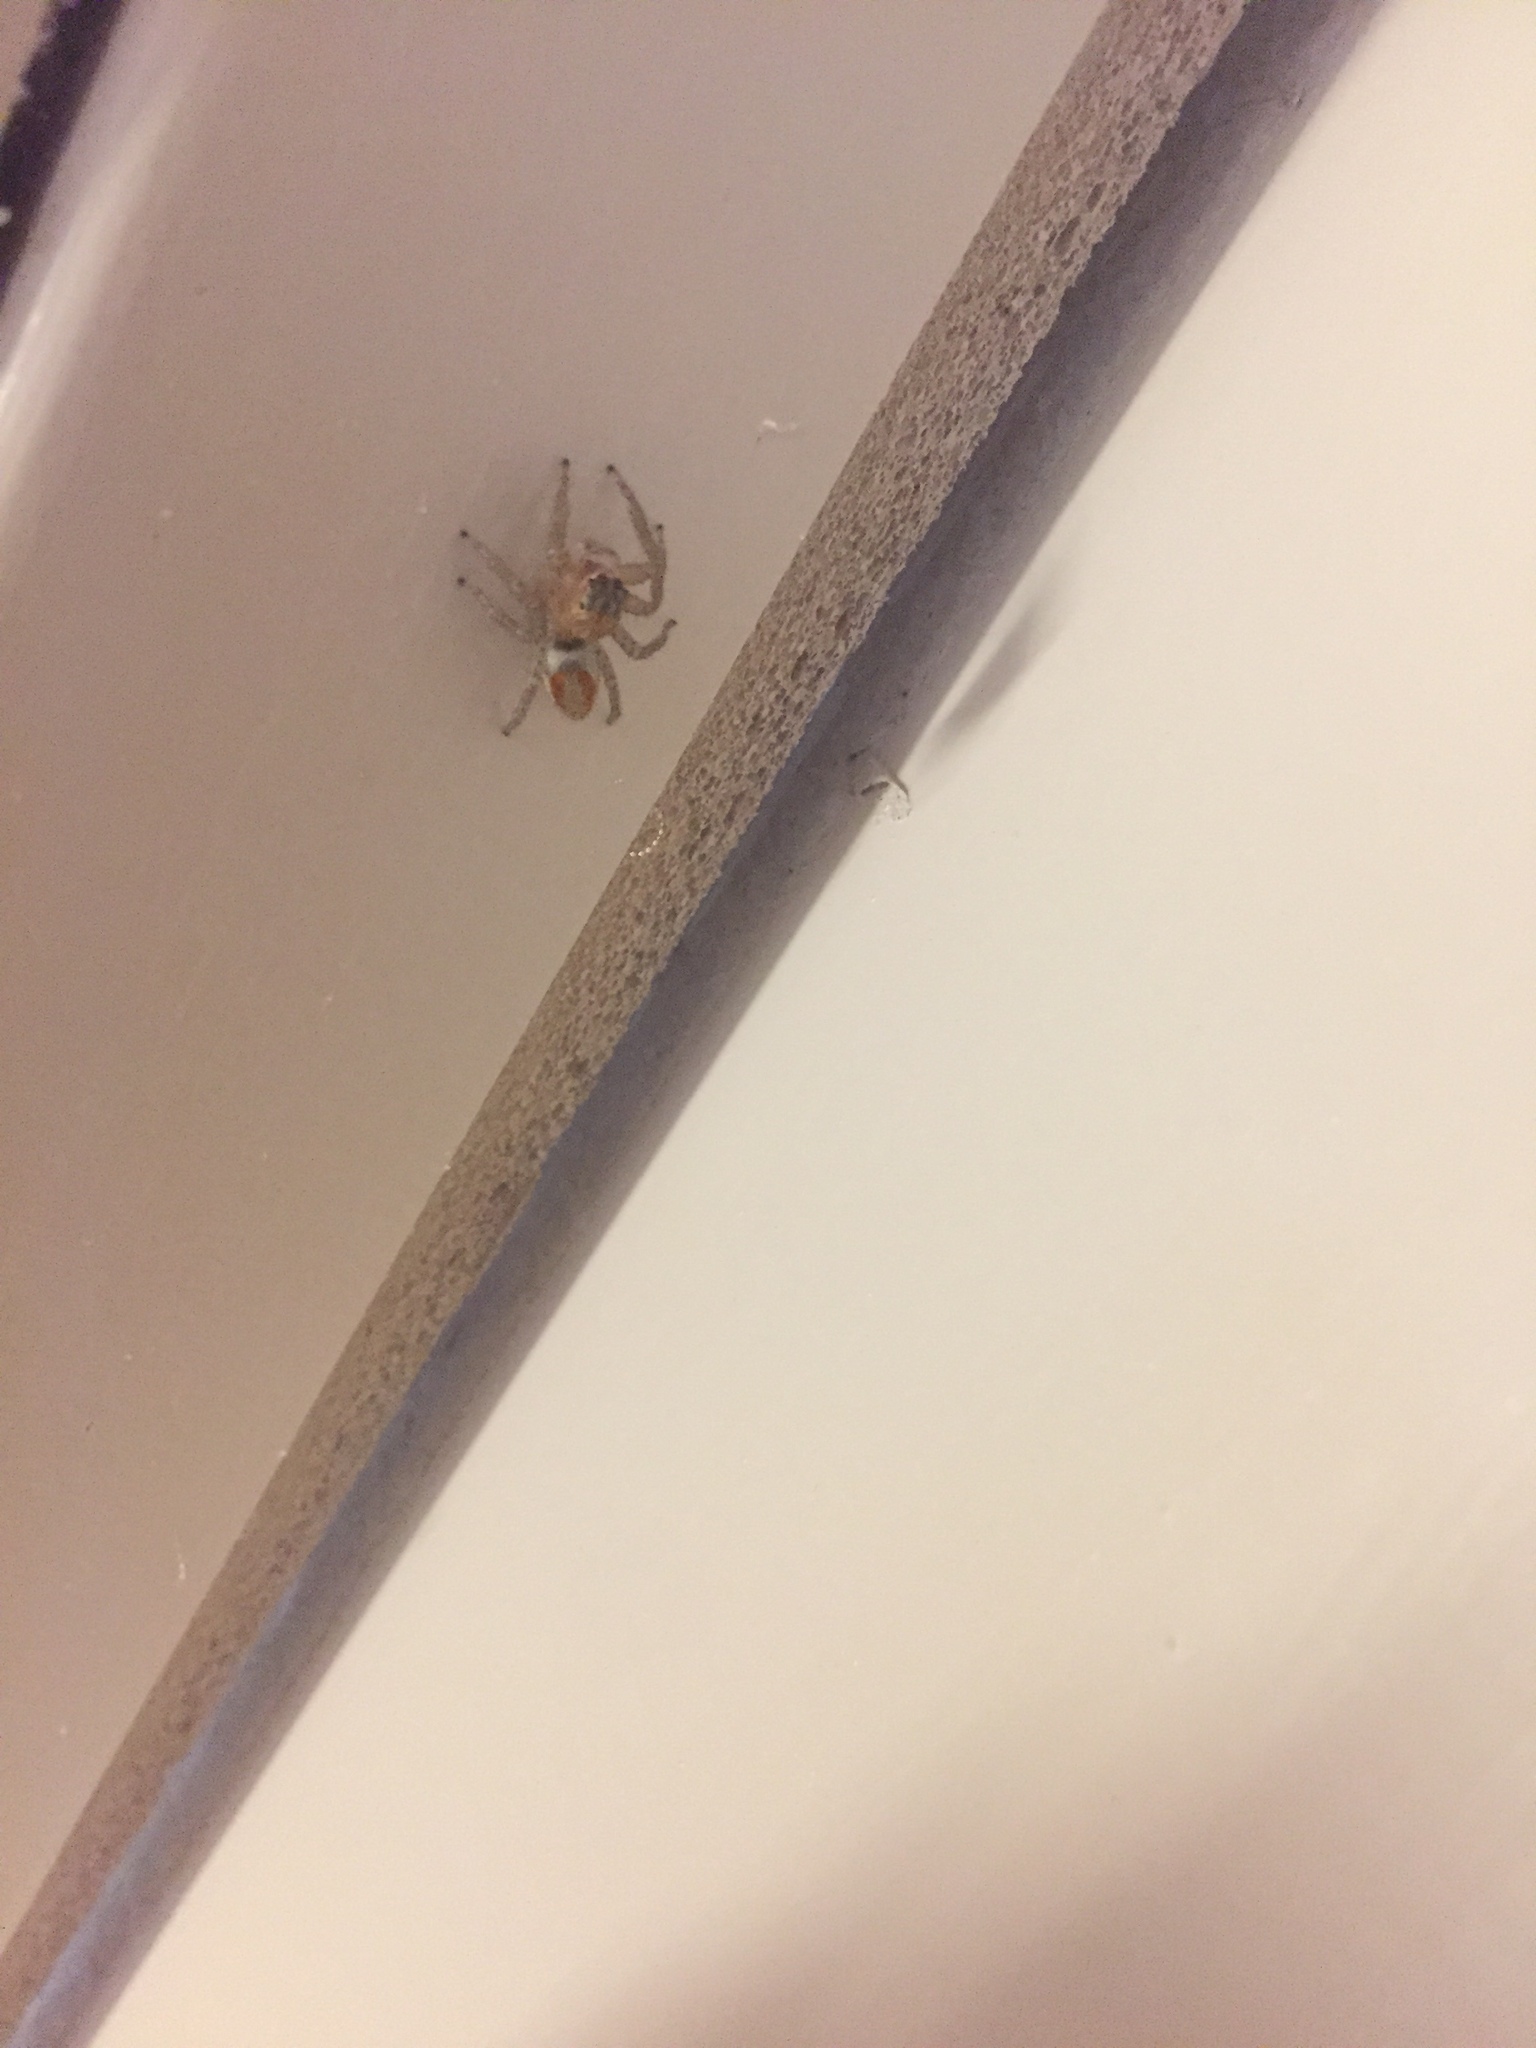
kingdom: Animalia
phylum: Arthropoda
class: Arachnida
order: Araneae
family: Salticidae
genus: Maevia
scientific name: Maevia inclemens
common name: Dimorphic jumper
